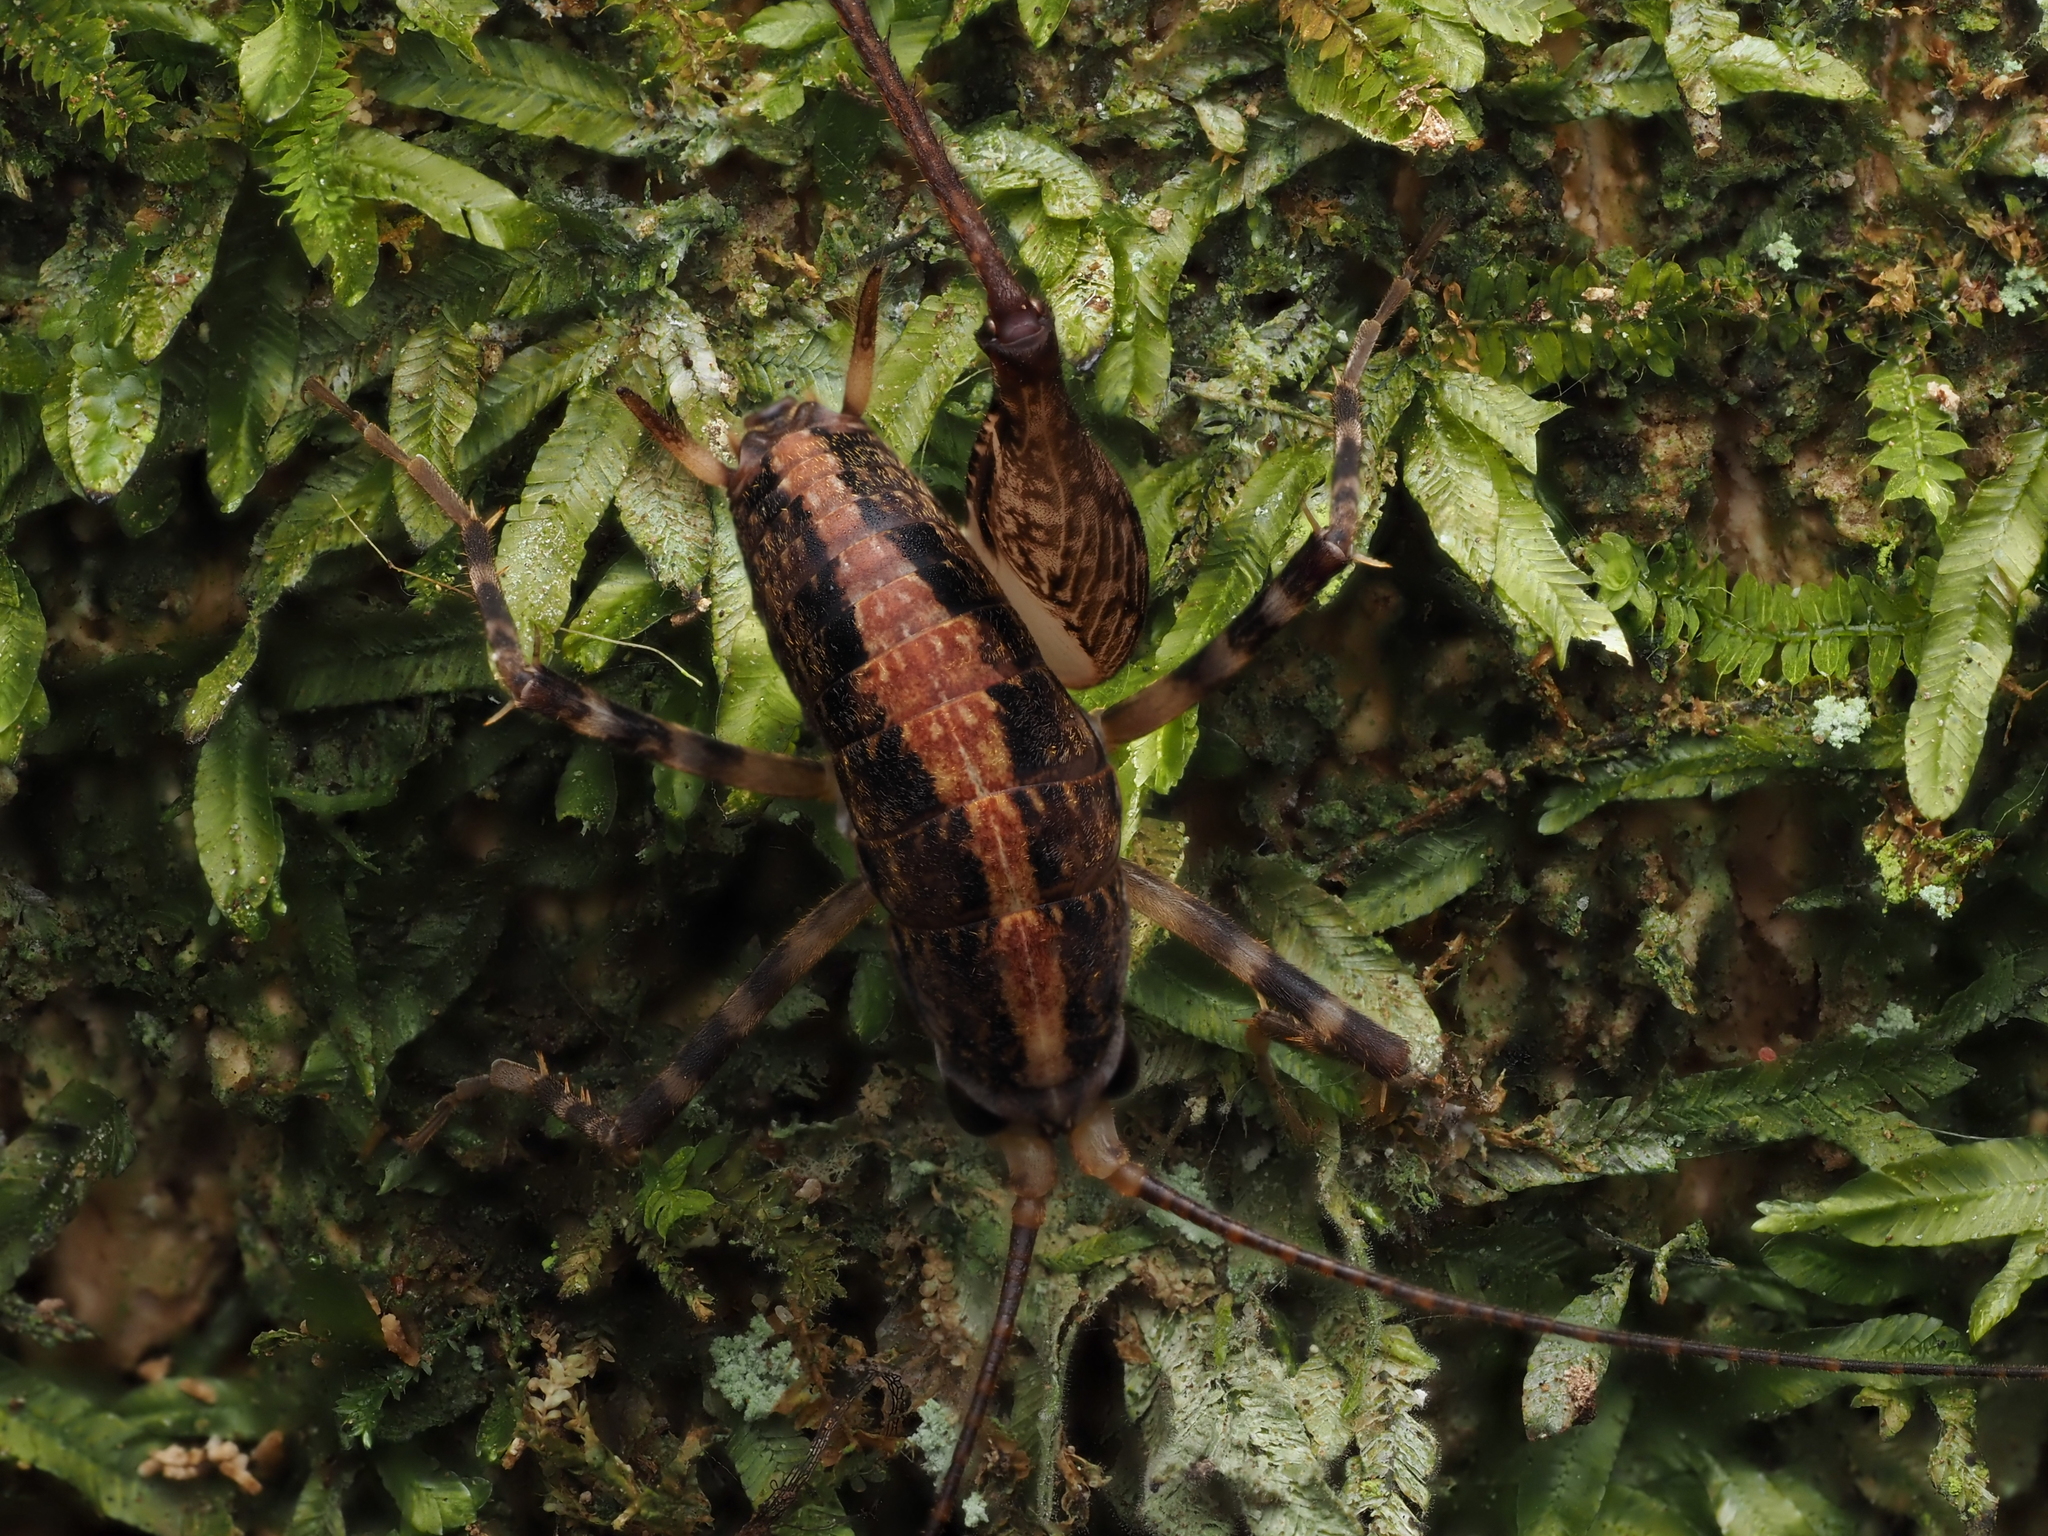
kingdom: Animalia
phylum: Arthropoda
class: Insecta
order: Orthoptera
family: Rhaphidophoridae
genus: Pleioplectron
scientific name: Pleioplectron hudsoni
